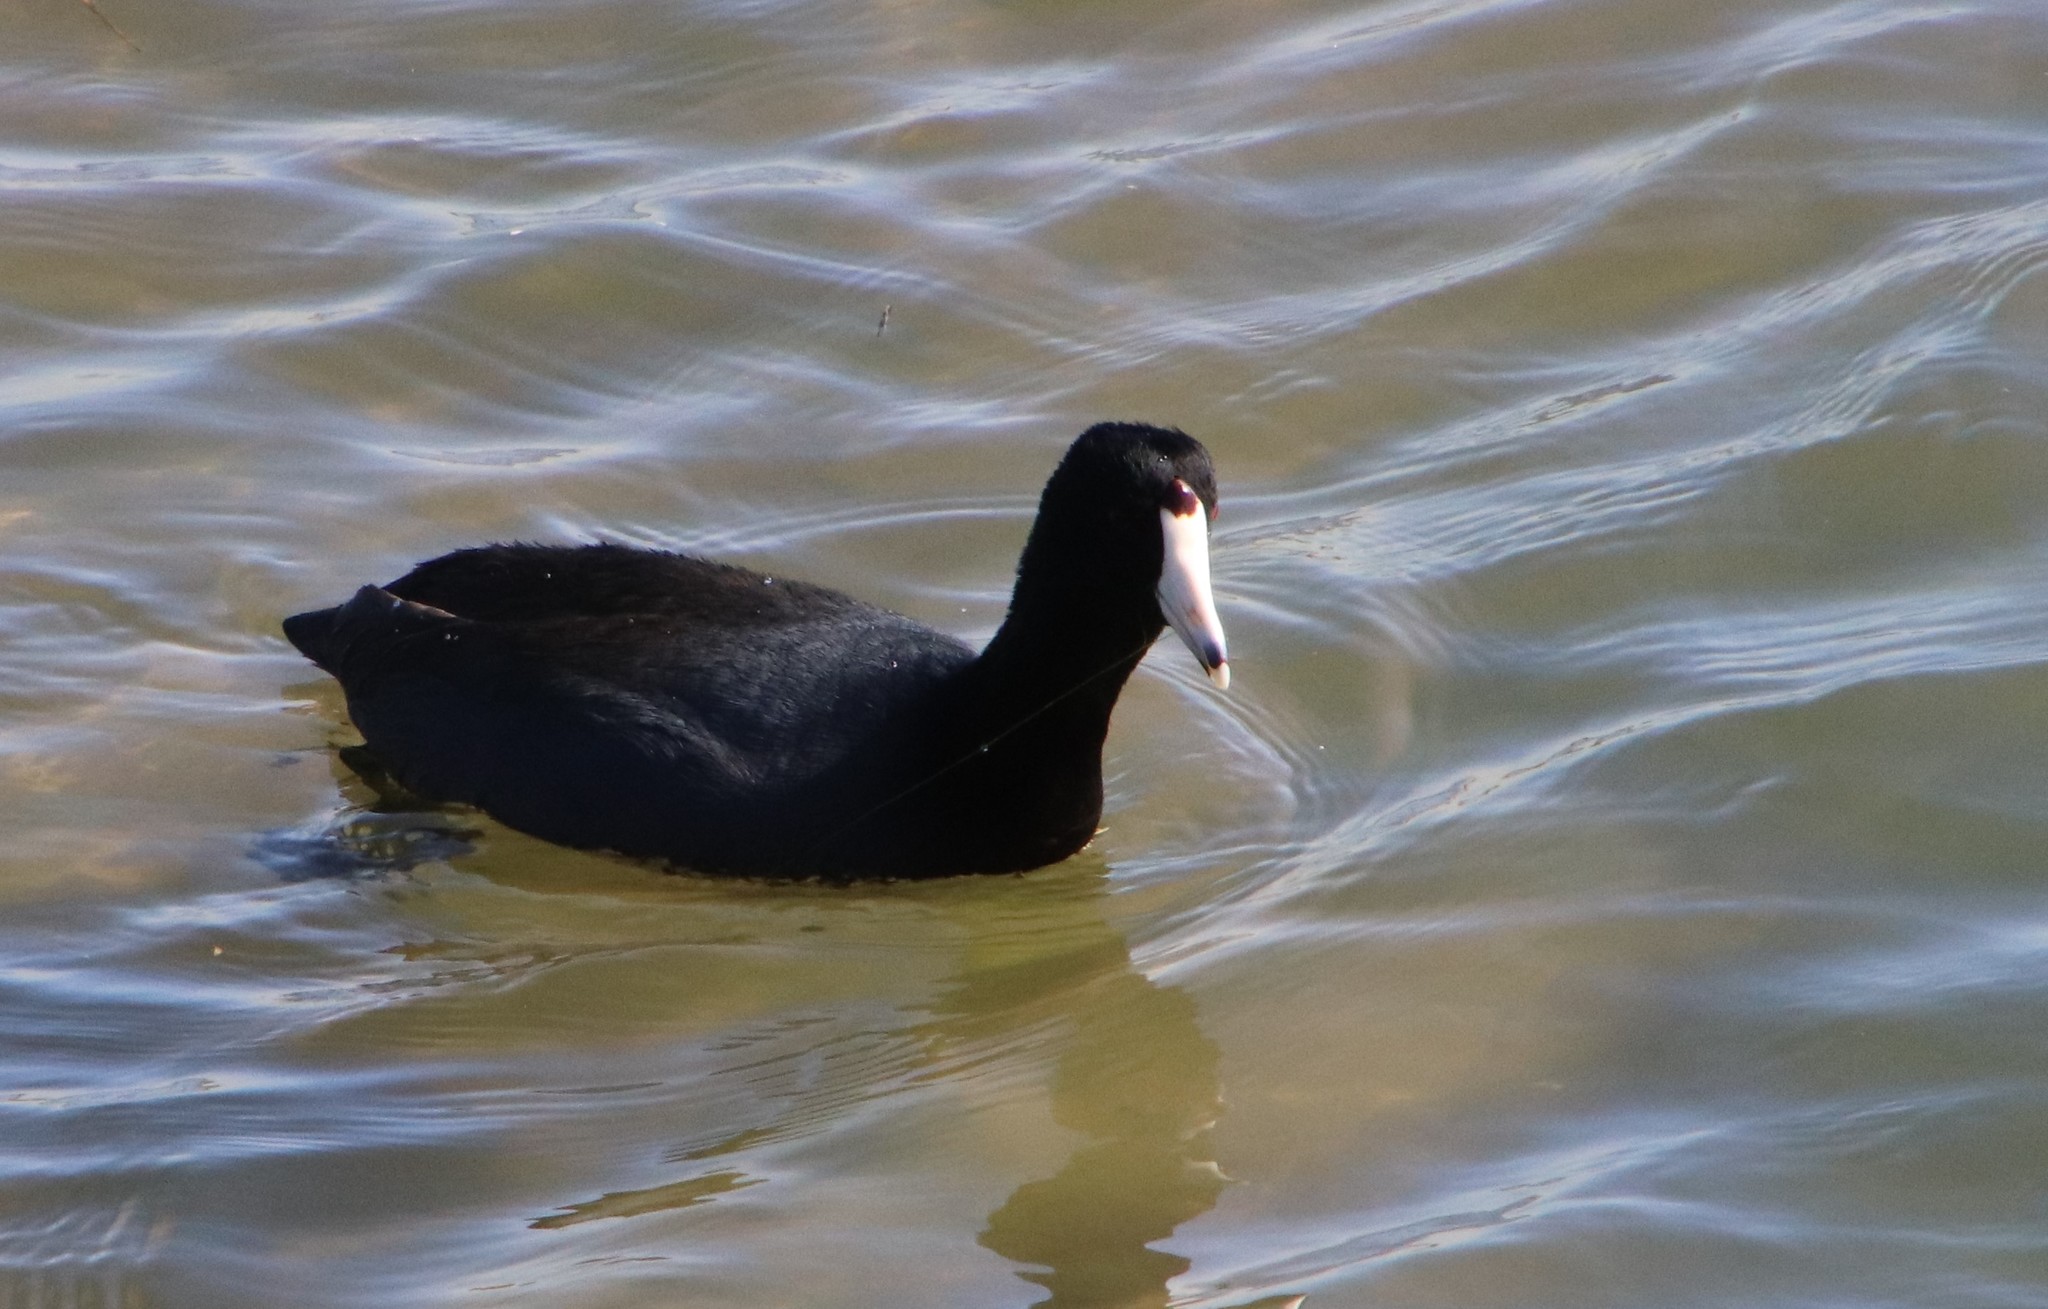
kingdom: Animalia
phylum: Chordata
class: Aves
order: Gruiformes
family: Rallidae
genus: Fulica
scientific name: Fulica americana
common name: American coot
